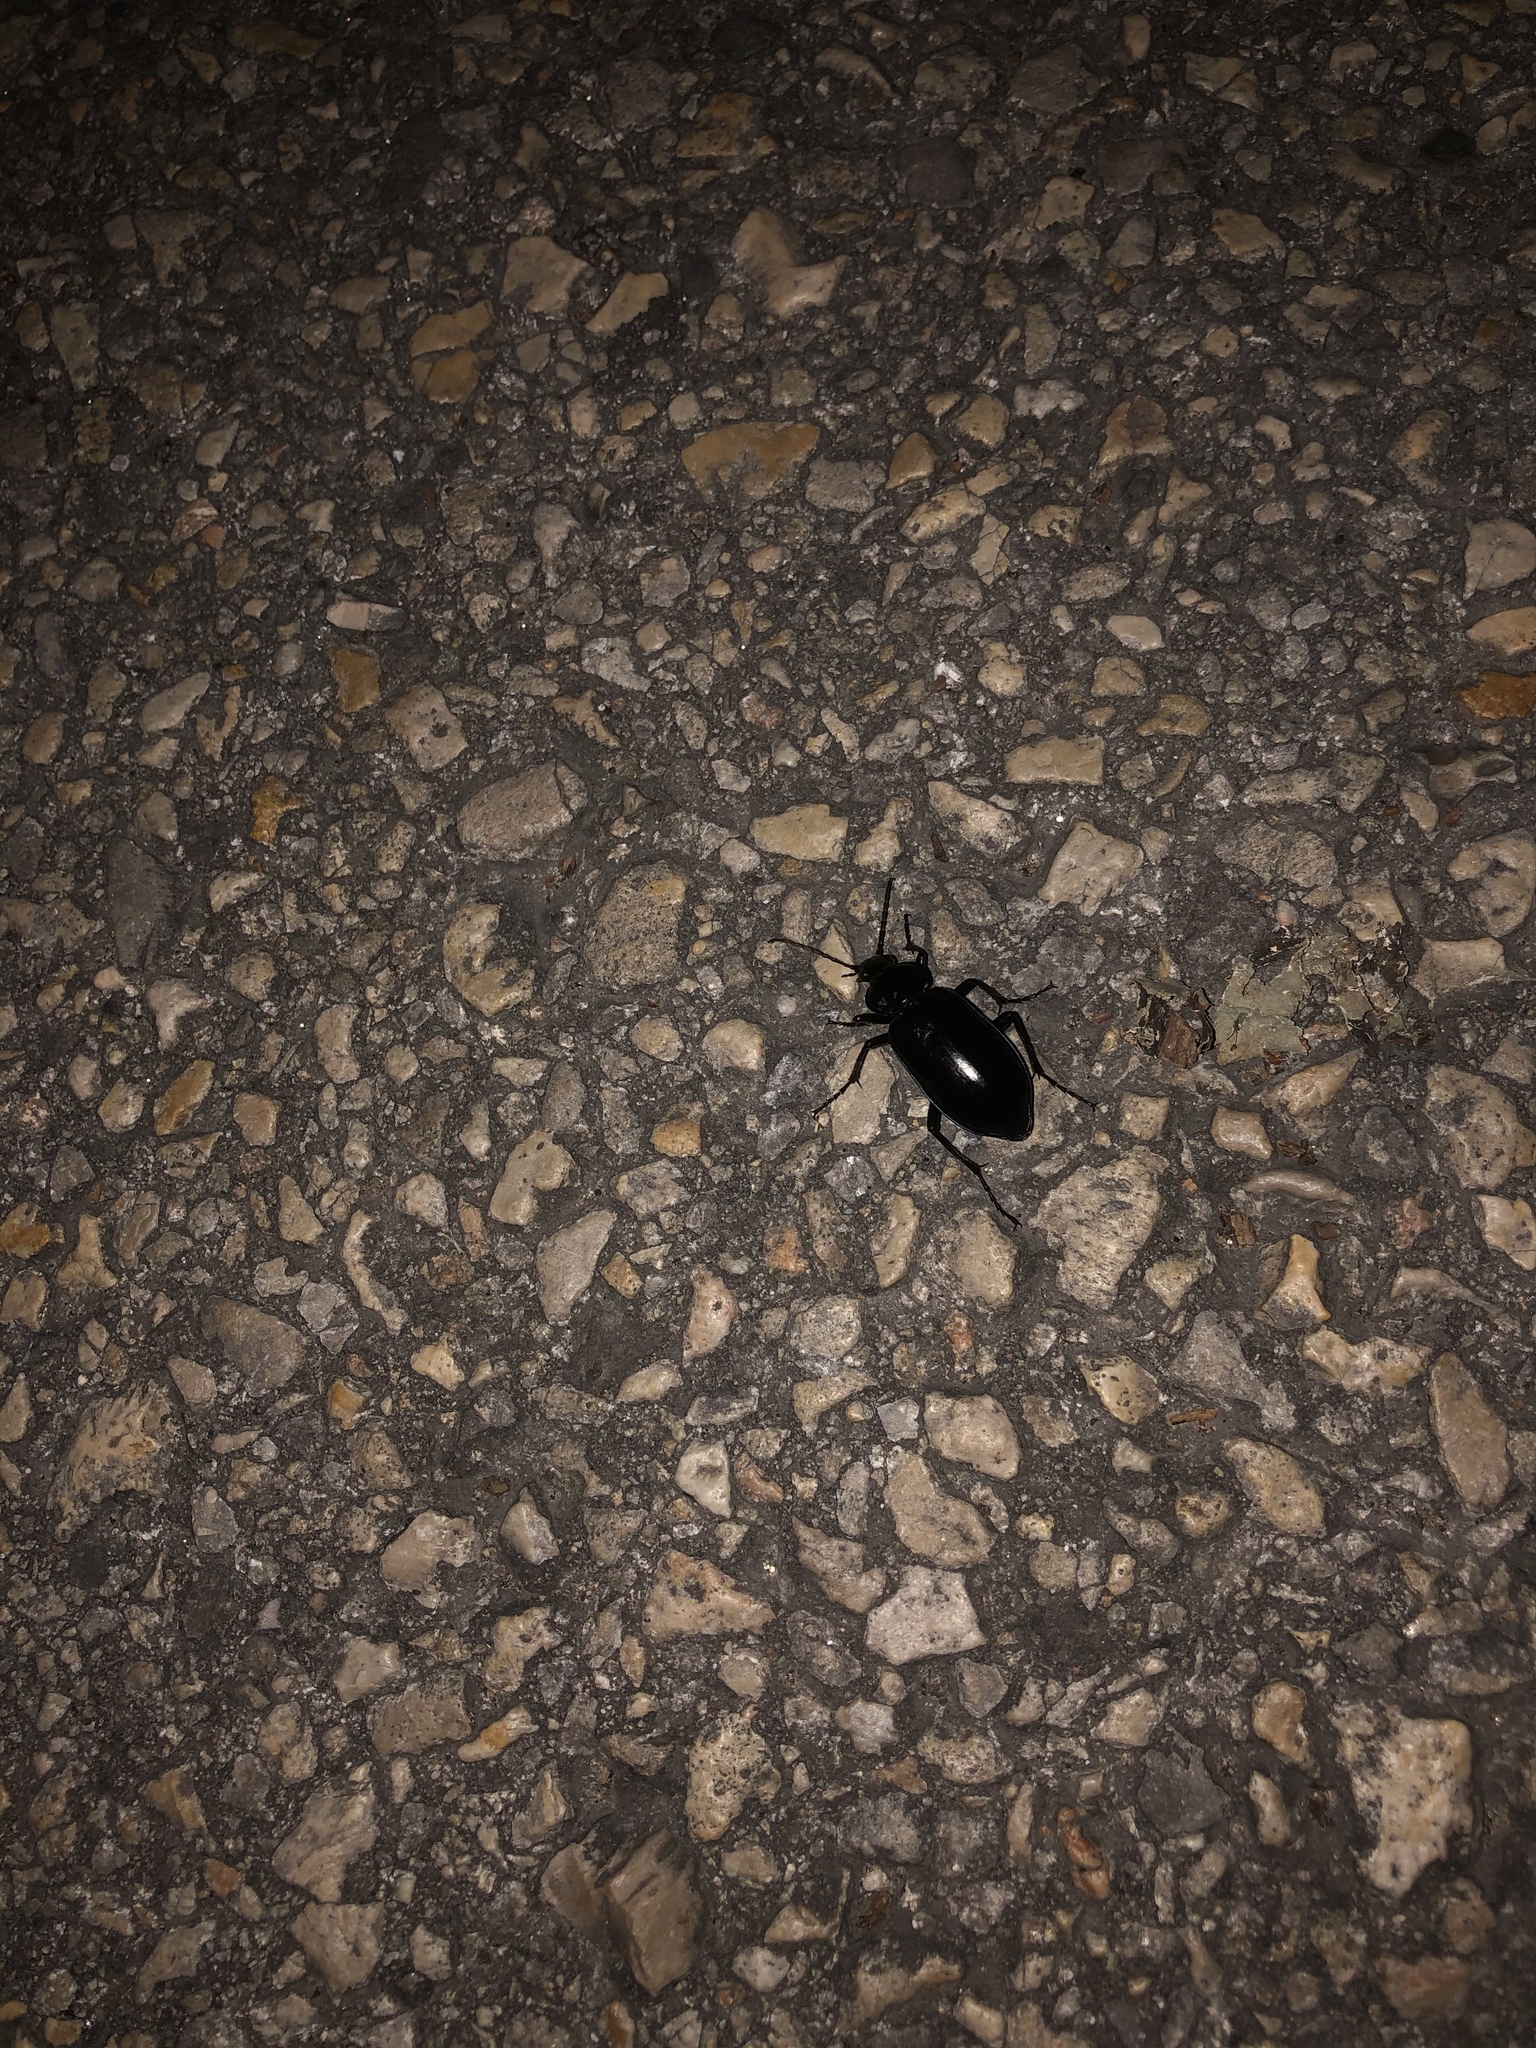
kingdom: Animalia
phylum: Arthropoda
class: Insecta
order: Coleoptera
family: Carabidae
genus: Calosoma
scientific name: Calosoma macrum
